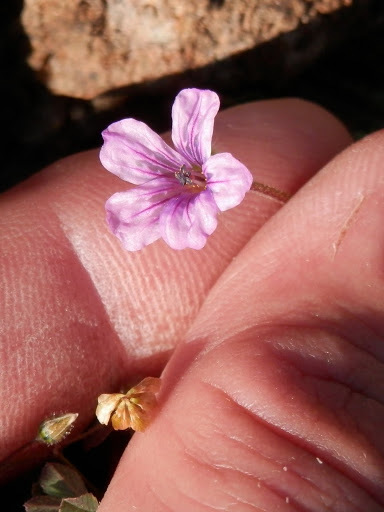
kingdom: Plantae
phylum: Tracheophyta
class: Magnoliopsida
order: Geraniales
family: Geraniaceae
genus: Erodium
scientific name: Erodium botrys
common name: Mediterranean stork's-bill
